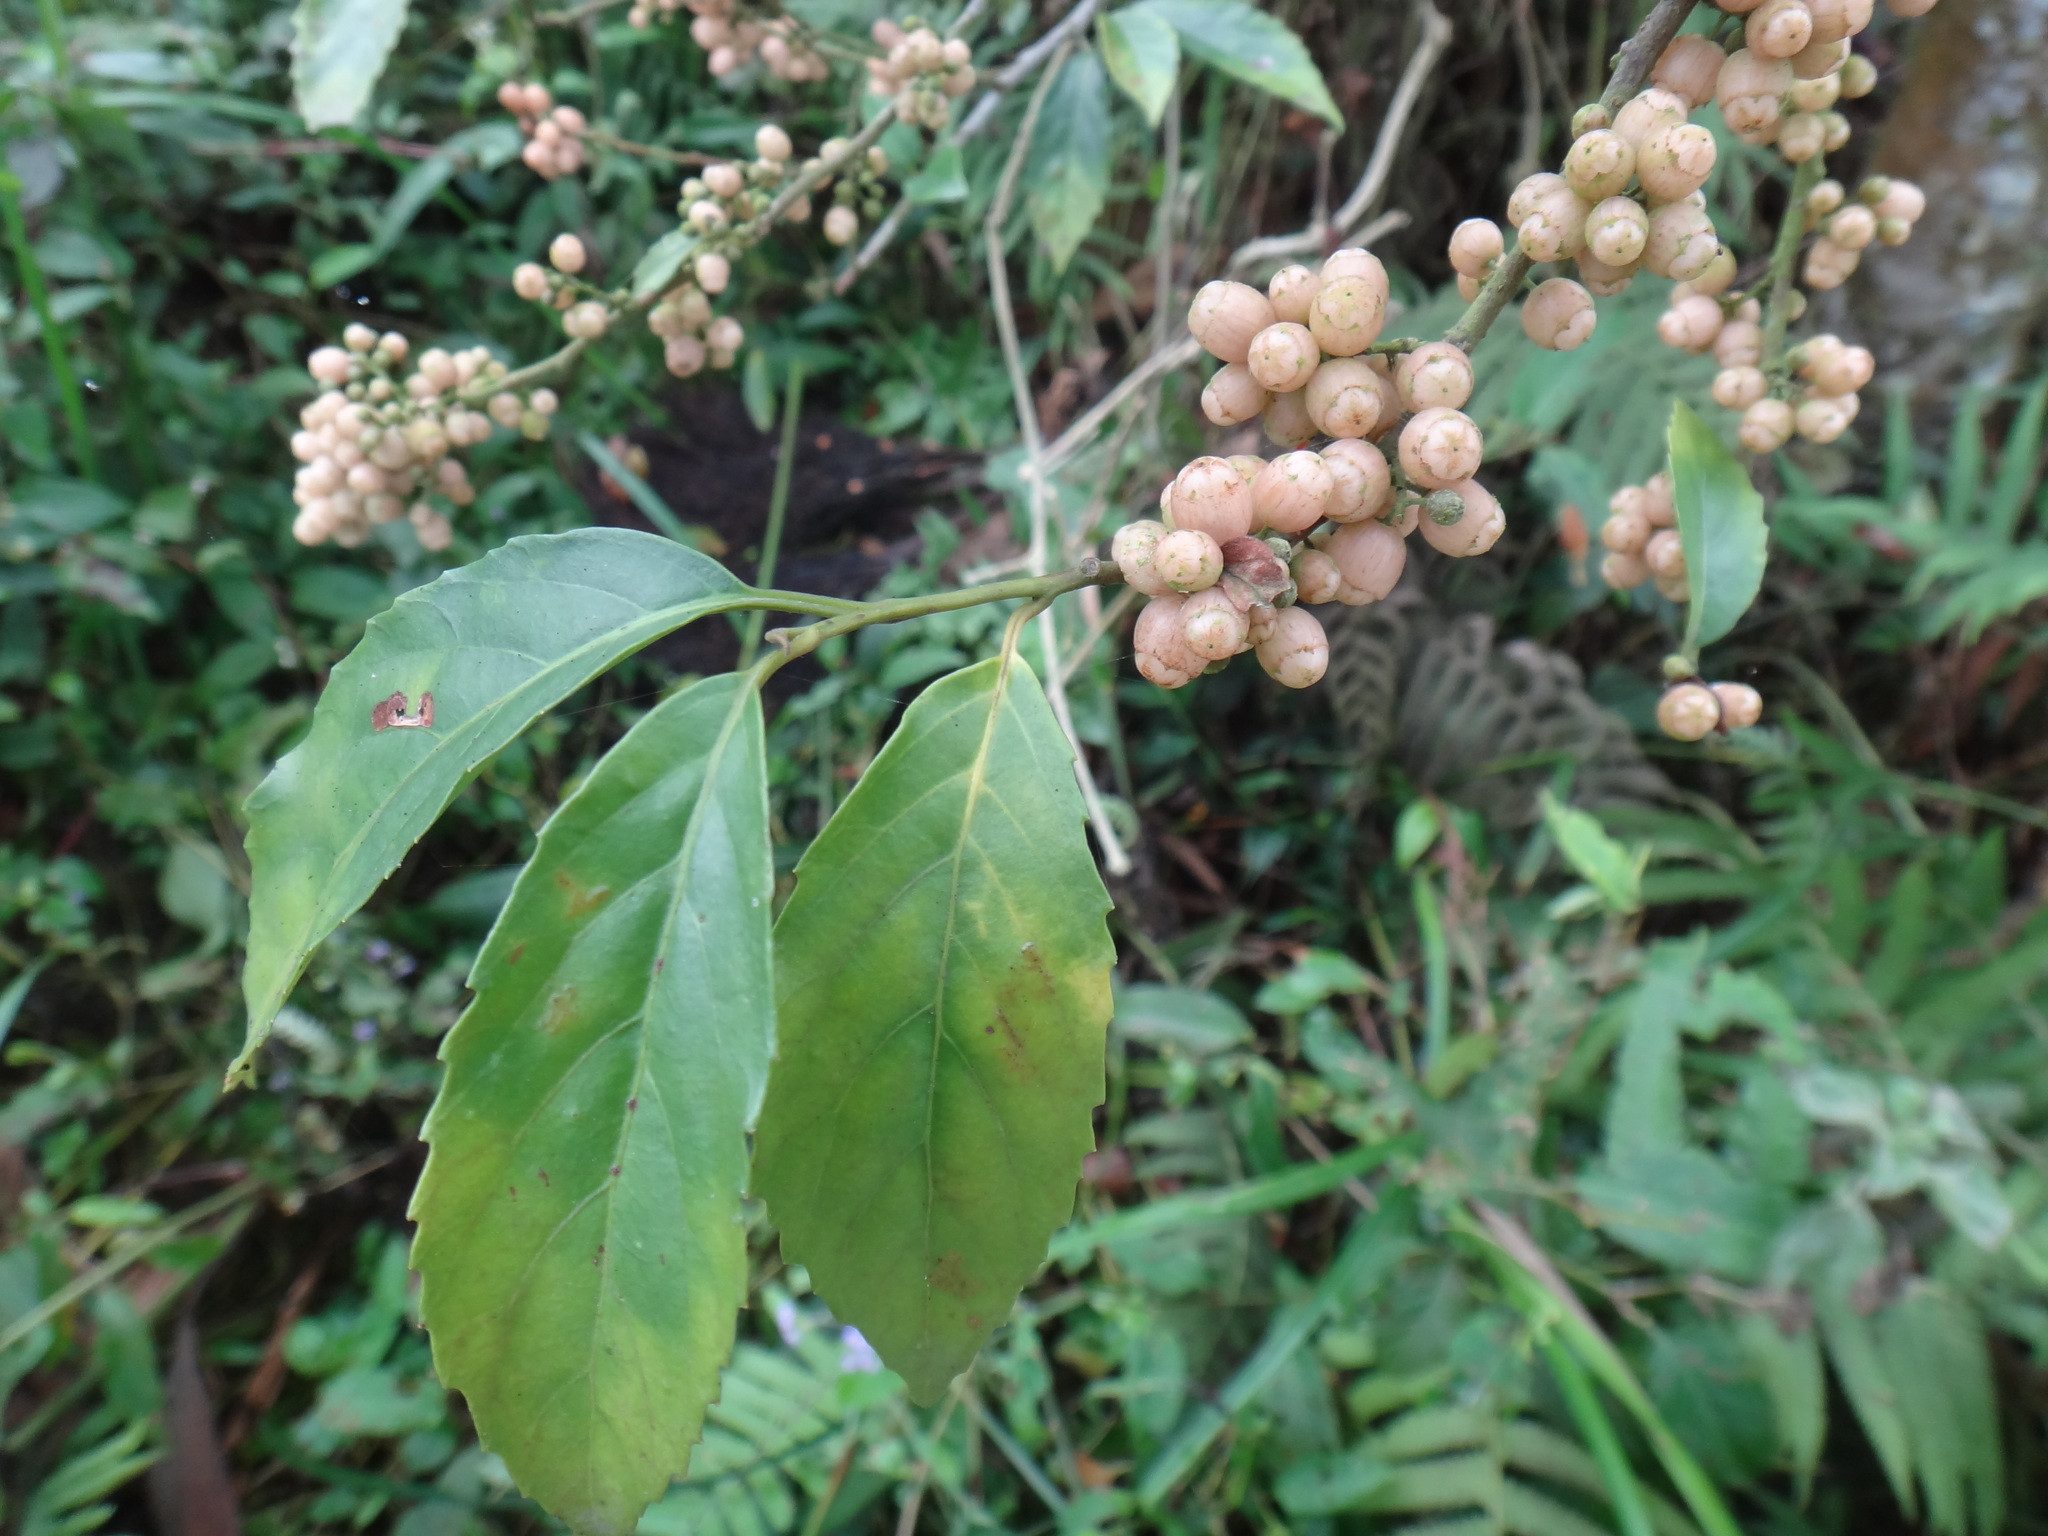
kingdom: Plantae
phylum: Tracheophyta
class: Magnoliopsida
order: Ericales
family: Primulaceae
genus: Maesa
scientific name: Maesa perlaria
